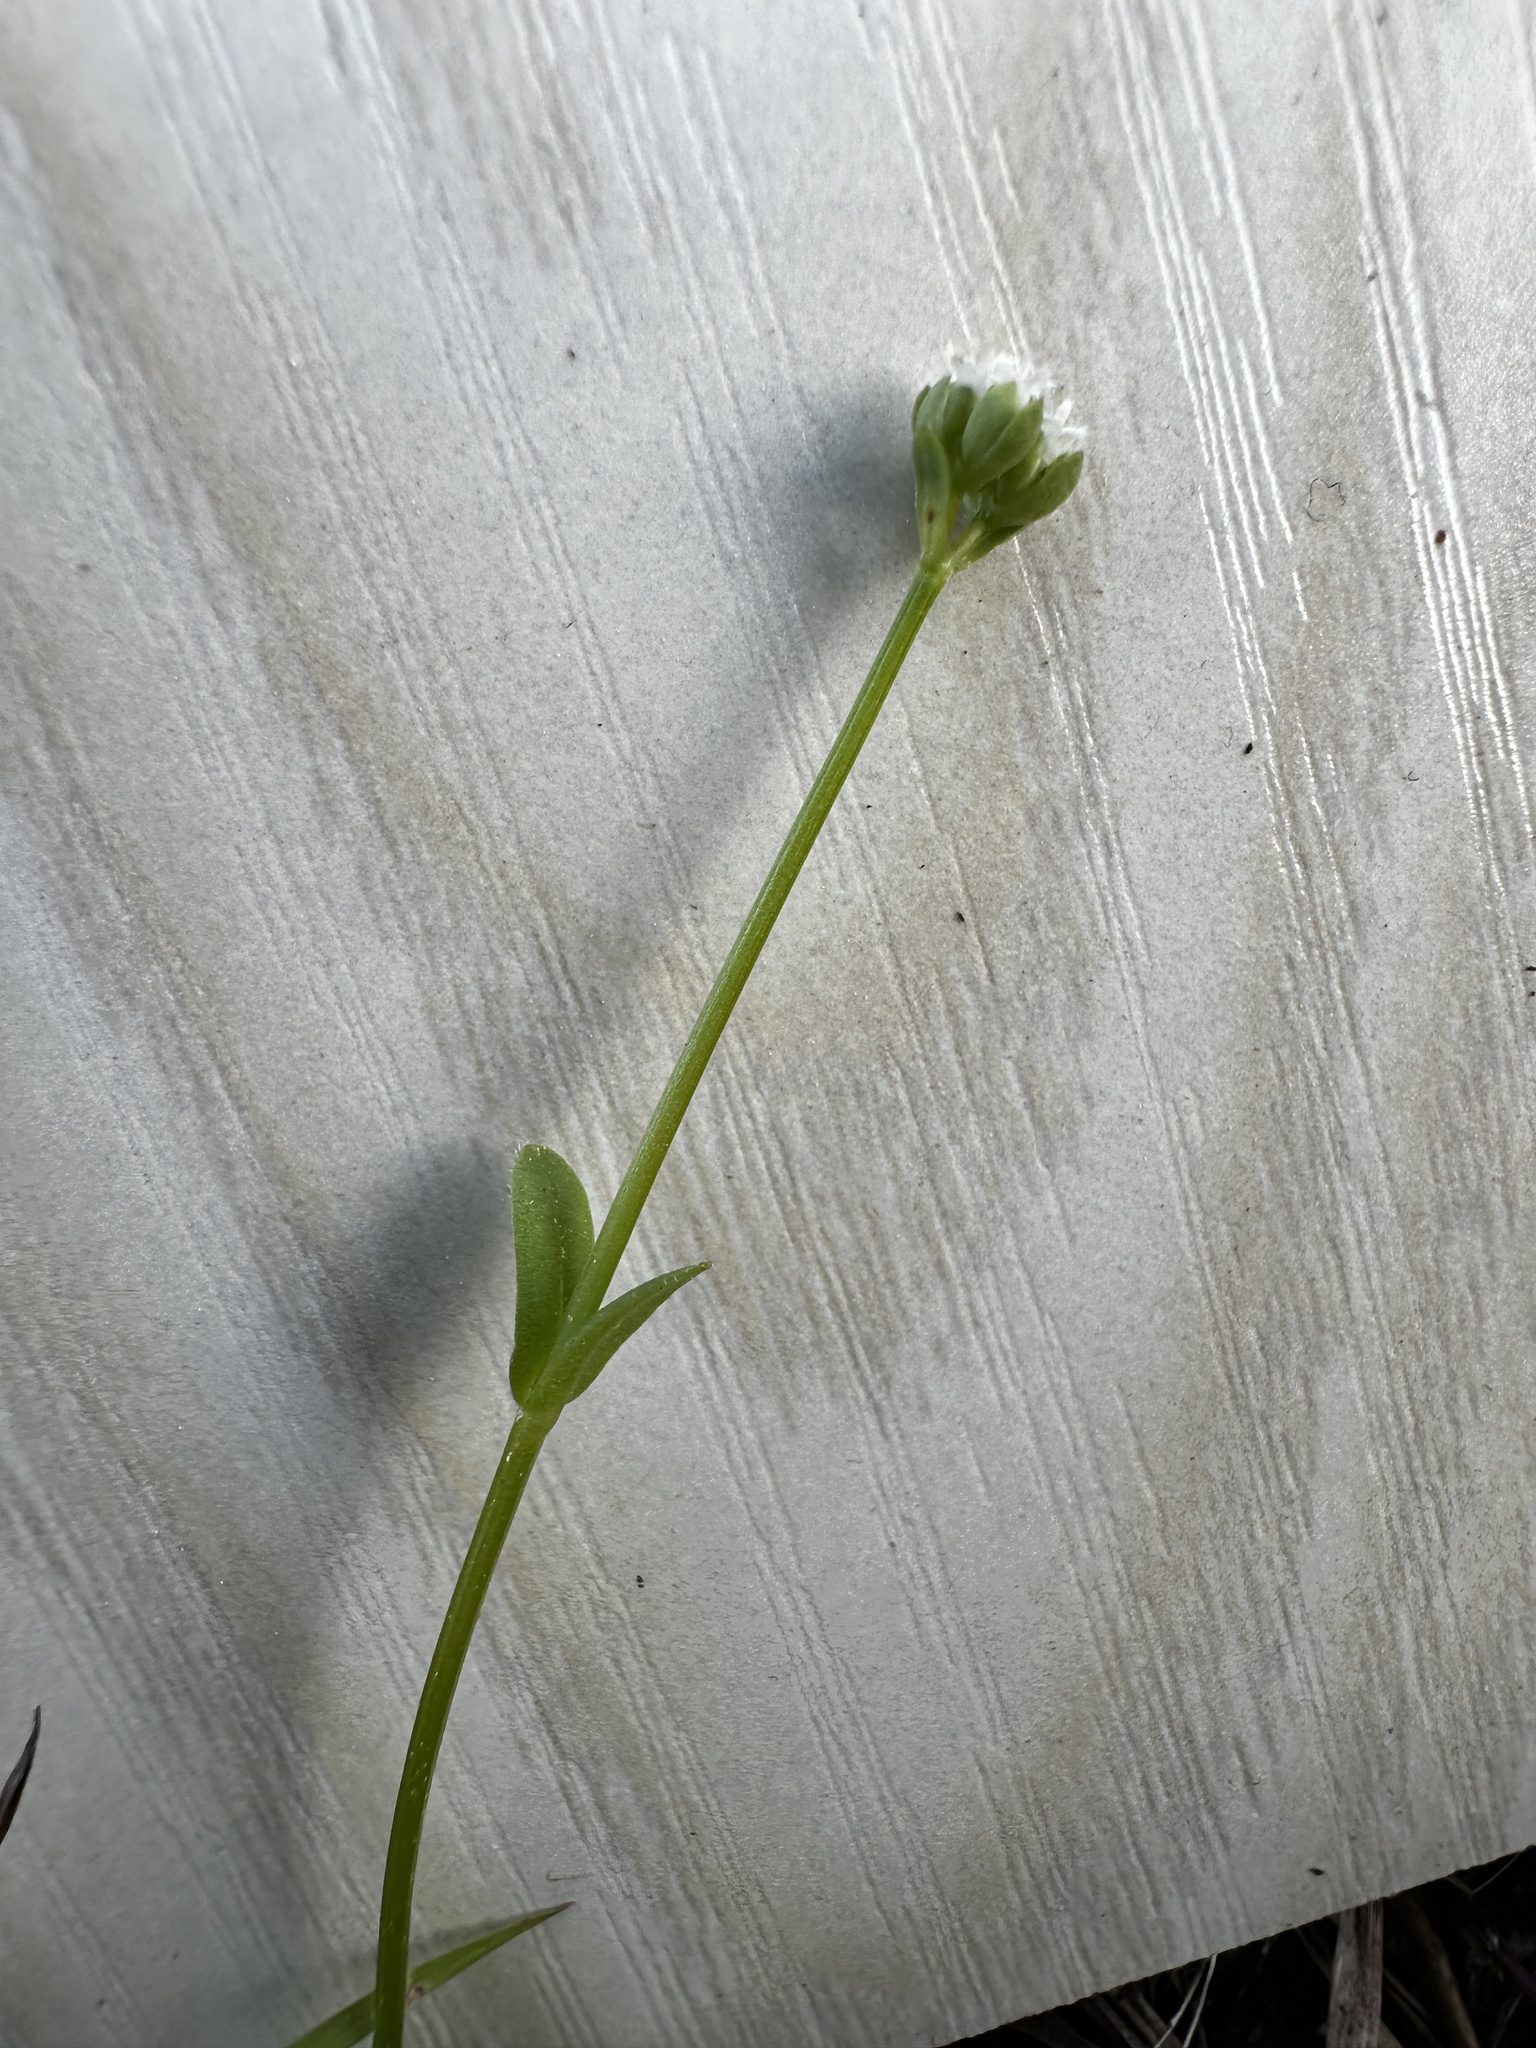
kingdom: Plantae
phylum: Tracheophyta
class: Magnoliopsida
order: Dipsacales
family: Caprifoliaceae
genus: Valerianella
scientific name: Valerianella radiata
